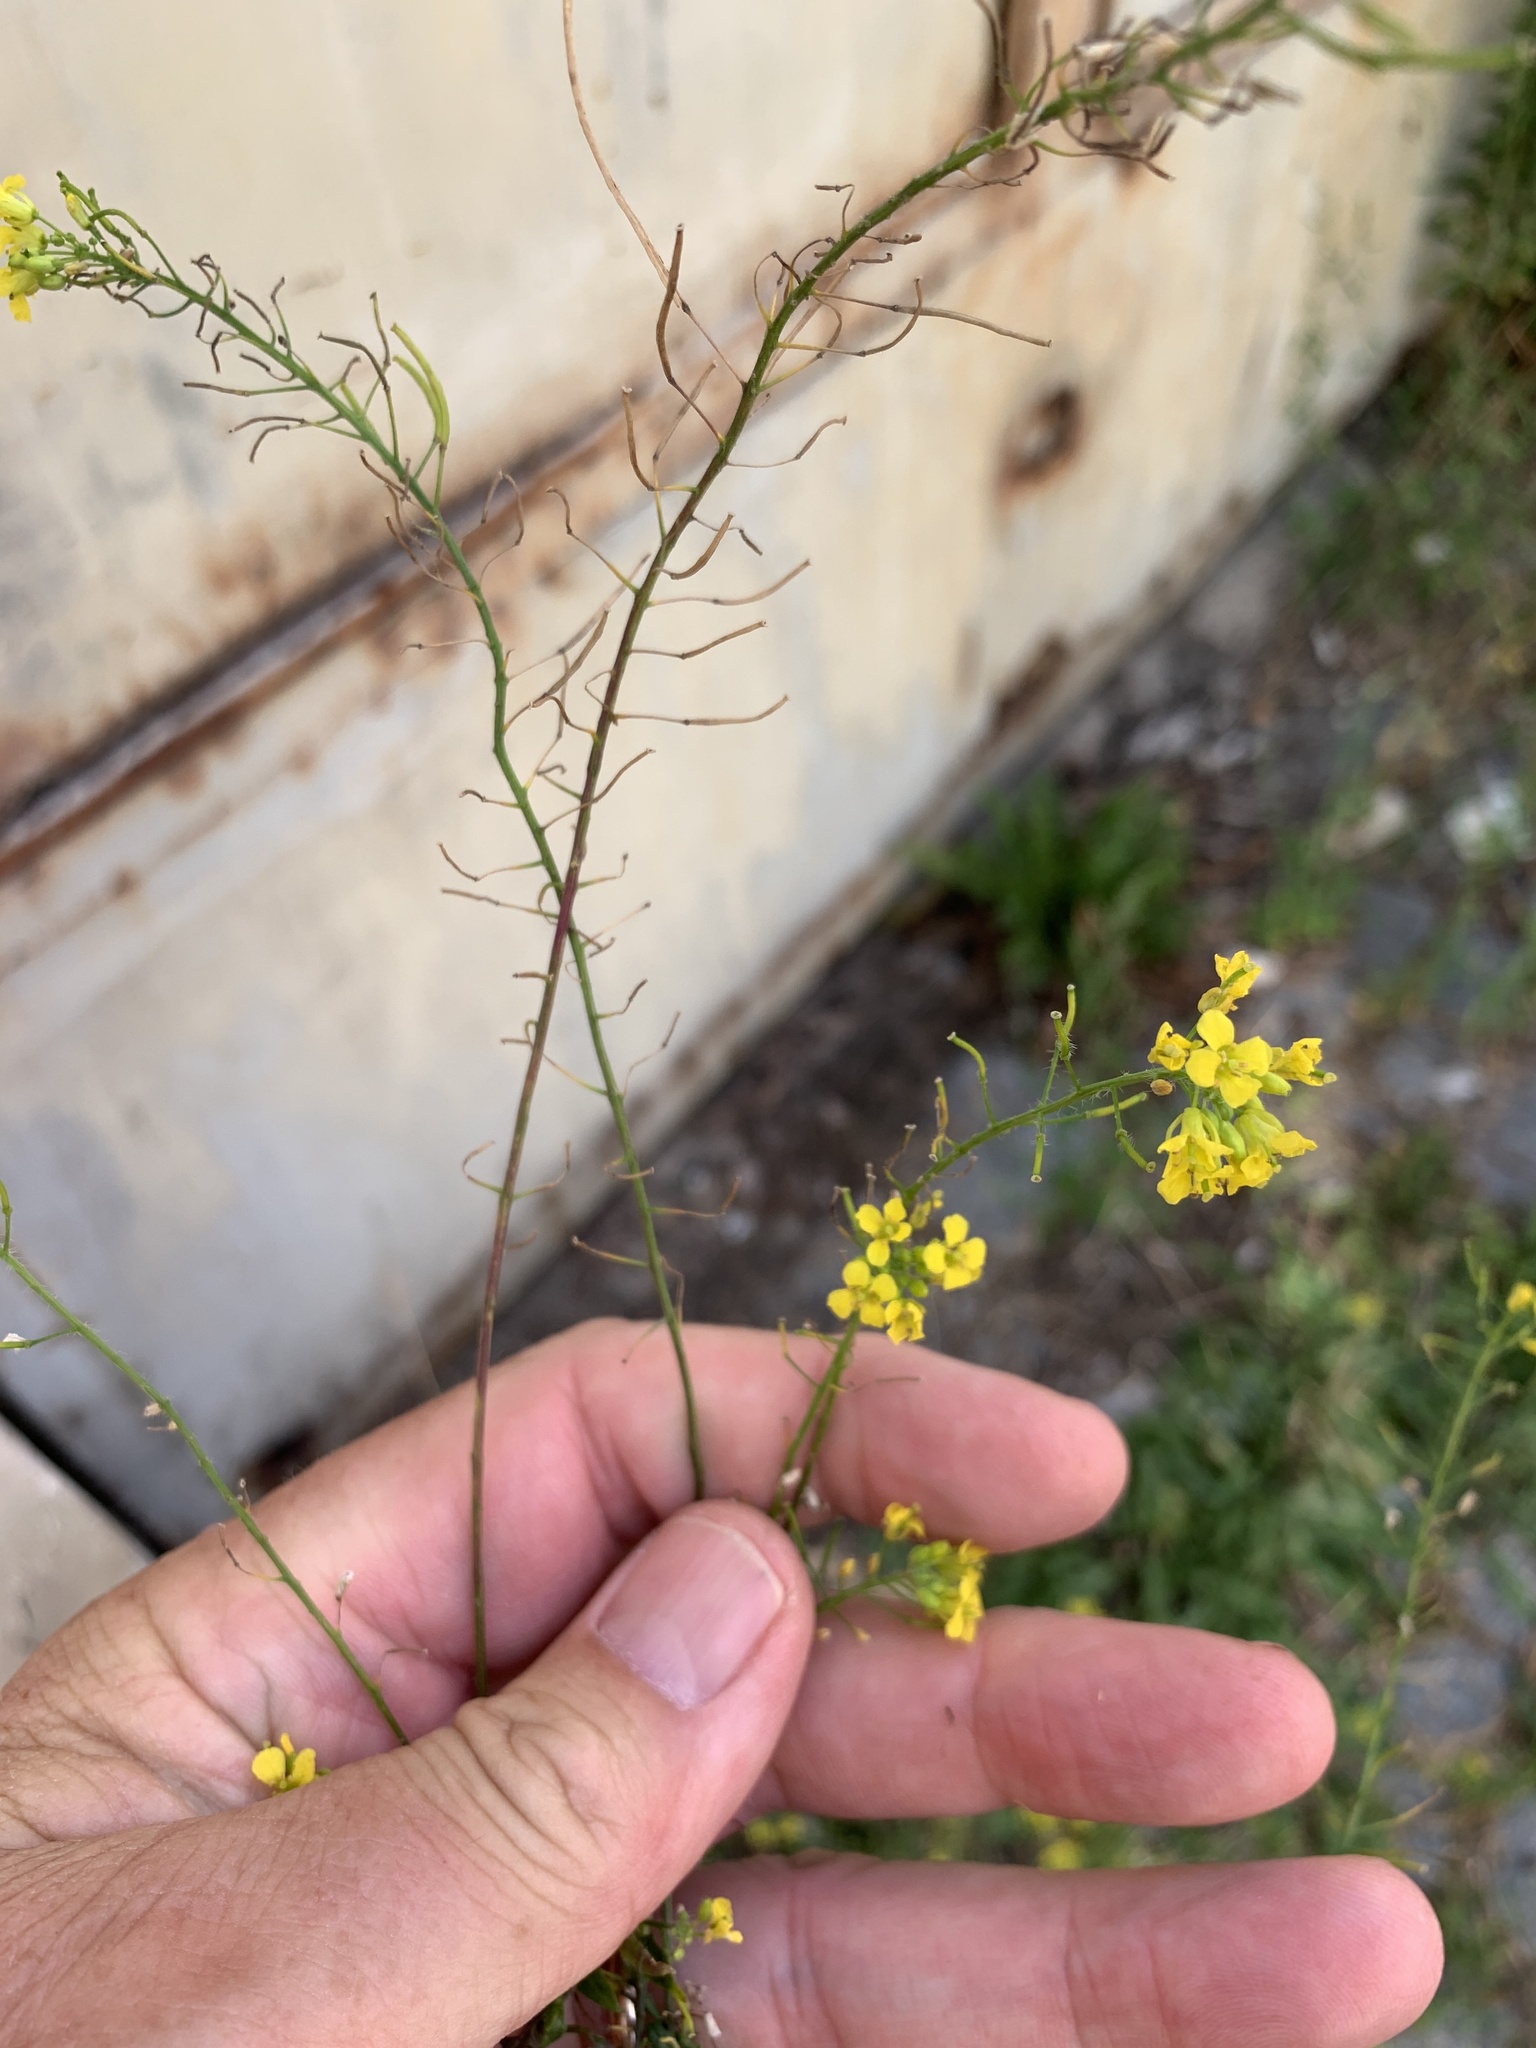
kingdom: Plantae
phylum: Tracheophyta
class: Magnoliopsida
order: Brassicales
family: Brassicaceae
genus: Sisymbrium
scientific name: Sisymbrium loeselii
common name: False london-rocket
